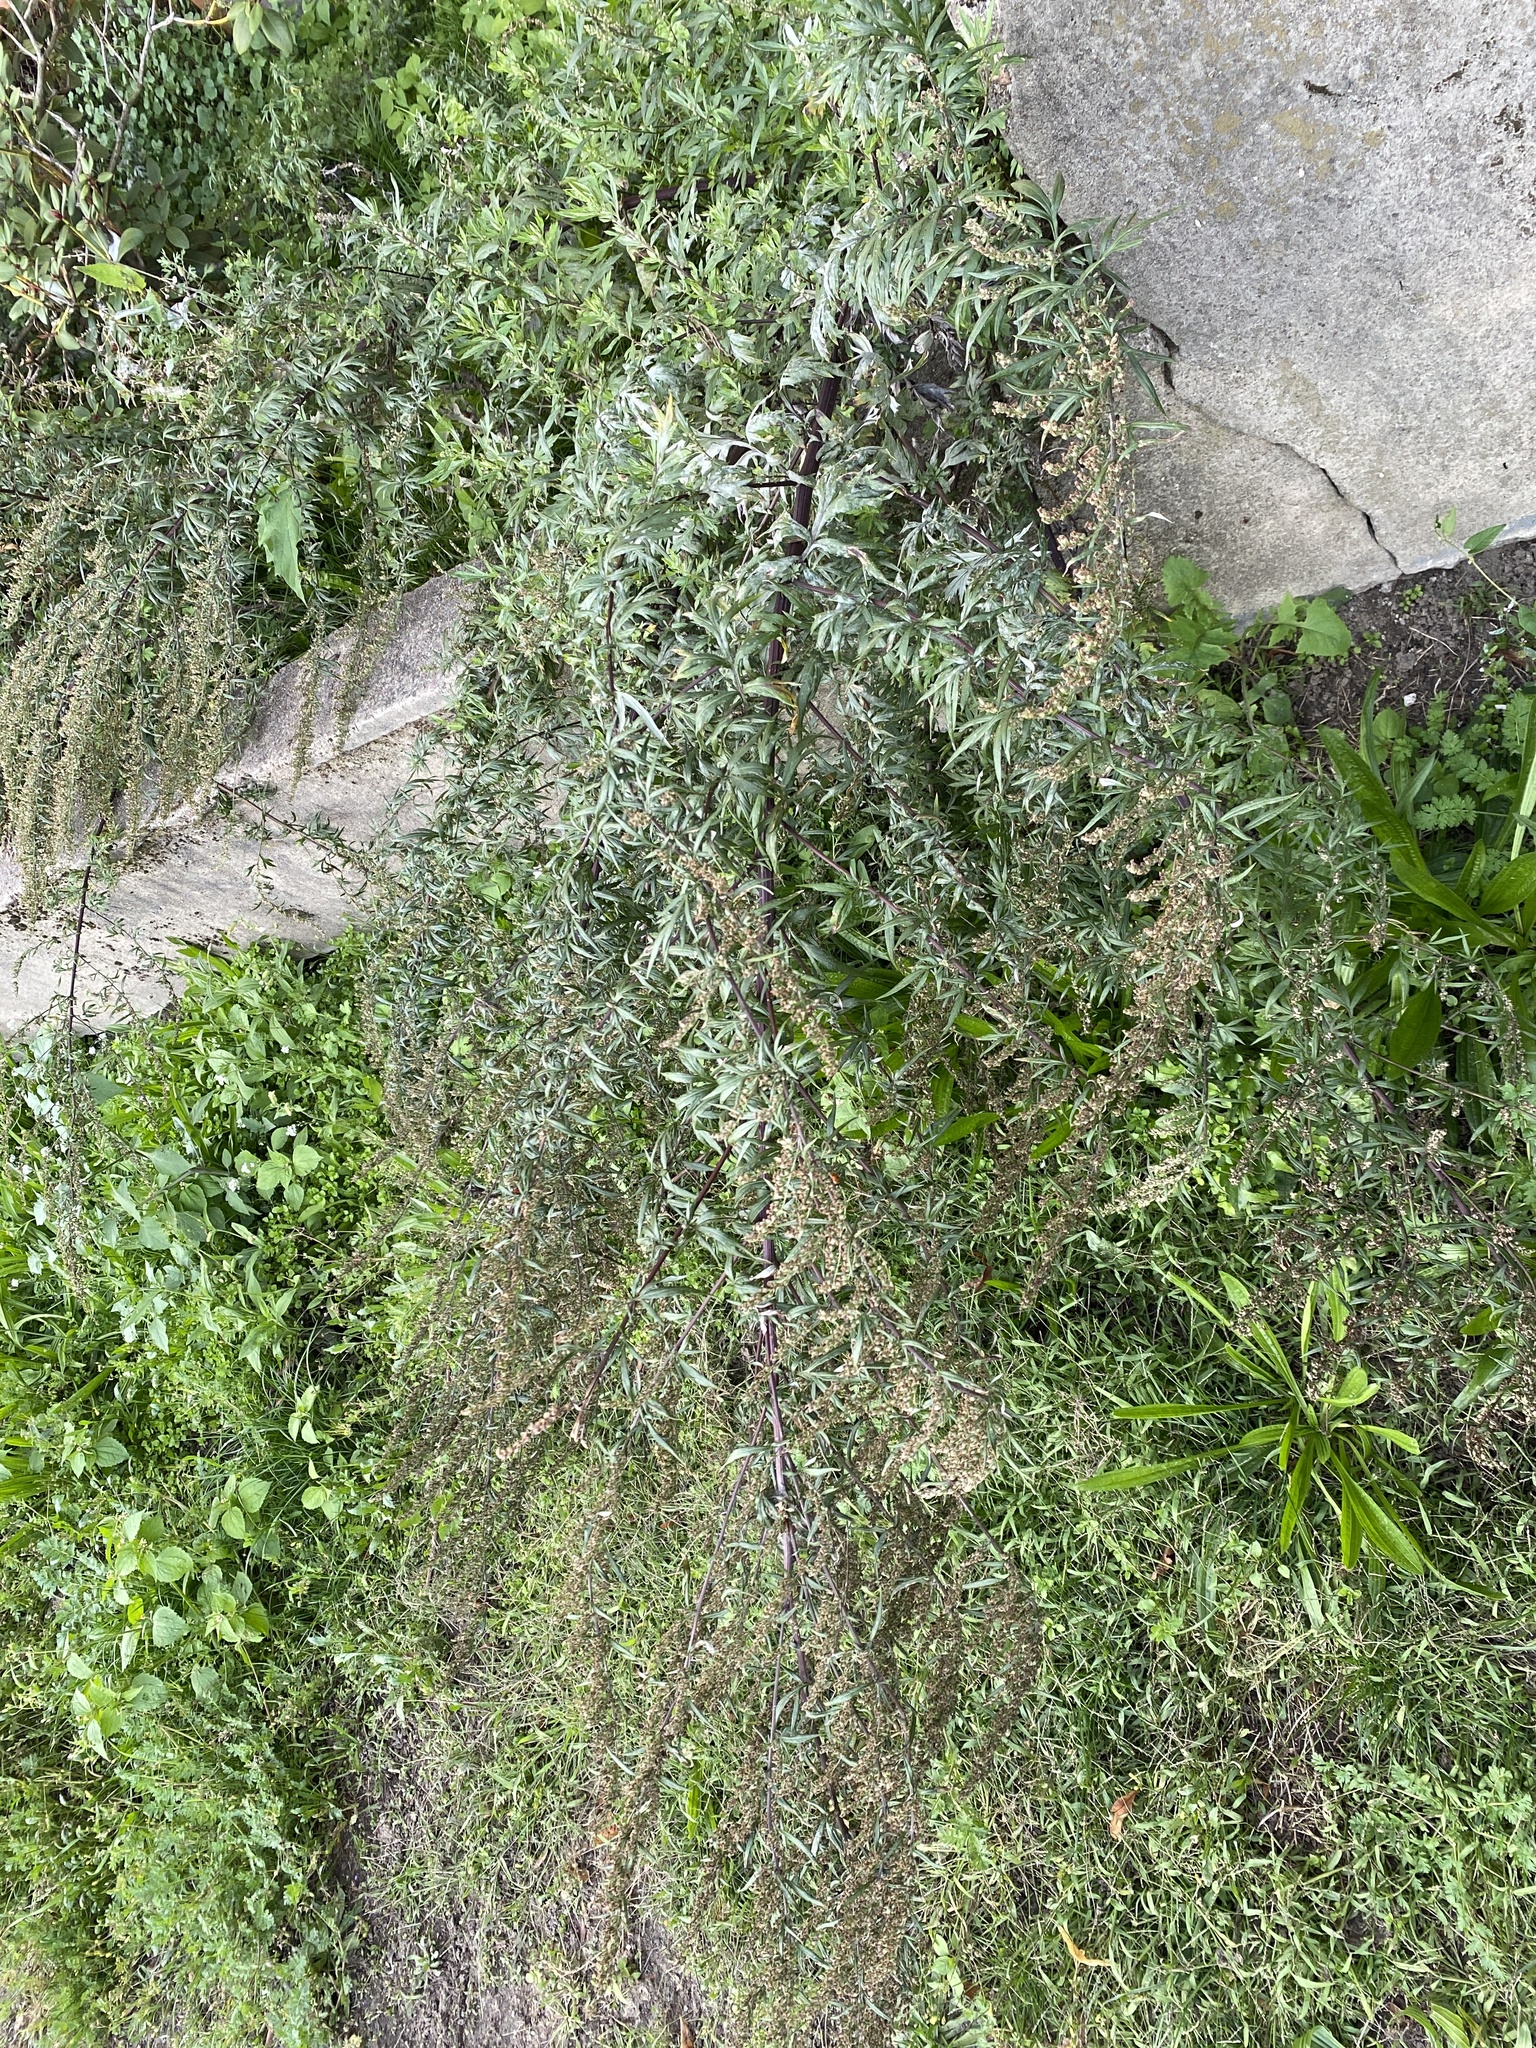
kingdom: Plantae
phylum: Tracheophyta
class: Magnoliopsida
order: Asterales
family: Asteraceae
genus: Artemisia
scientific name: Artemisia vulgaris
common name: Mugwort
